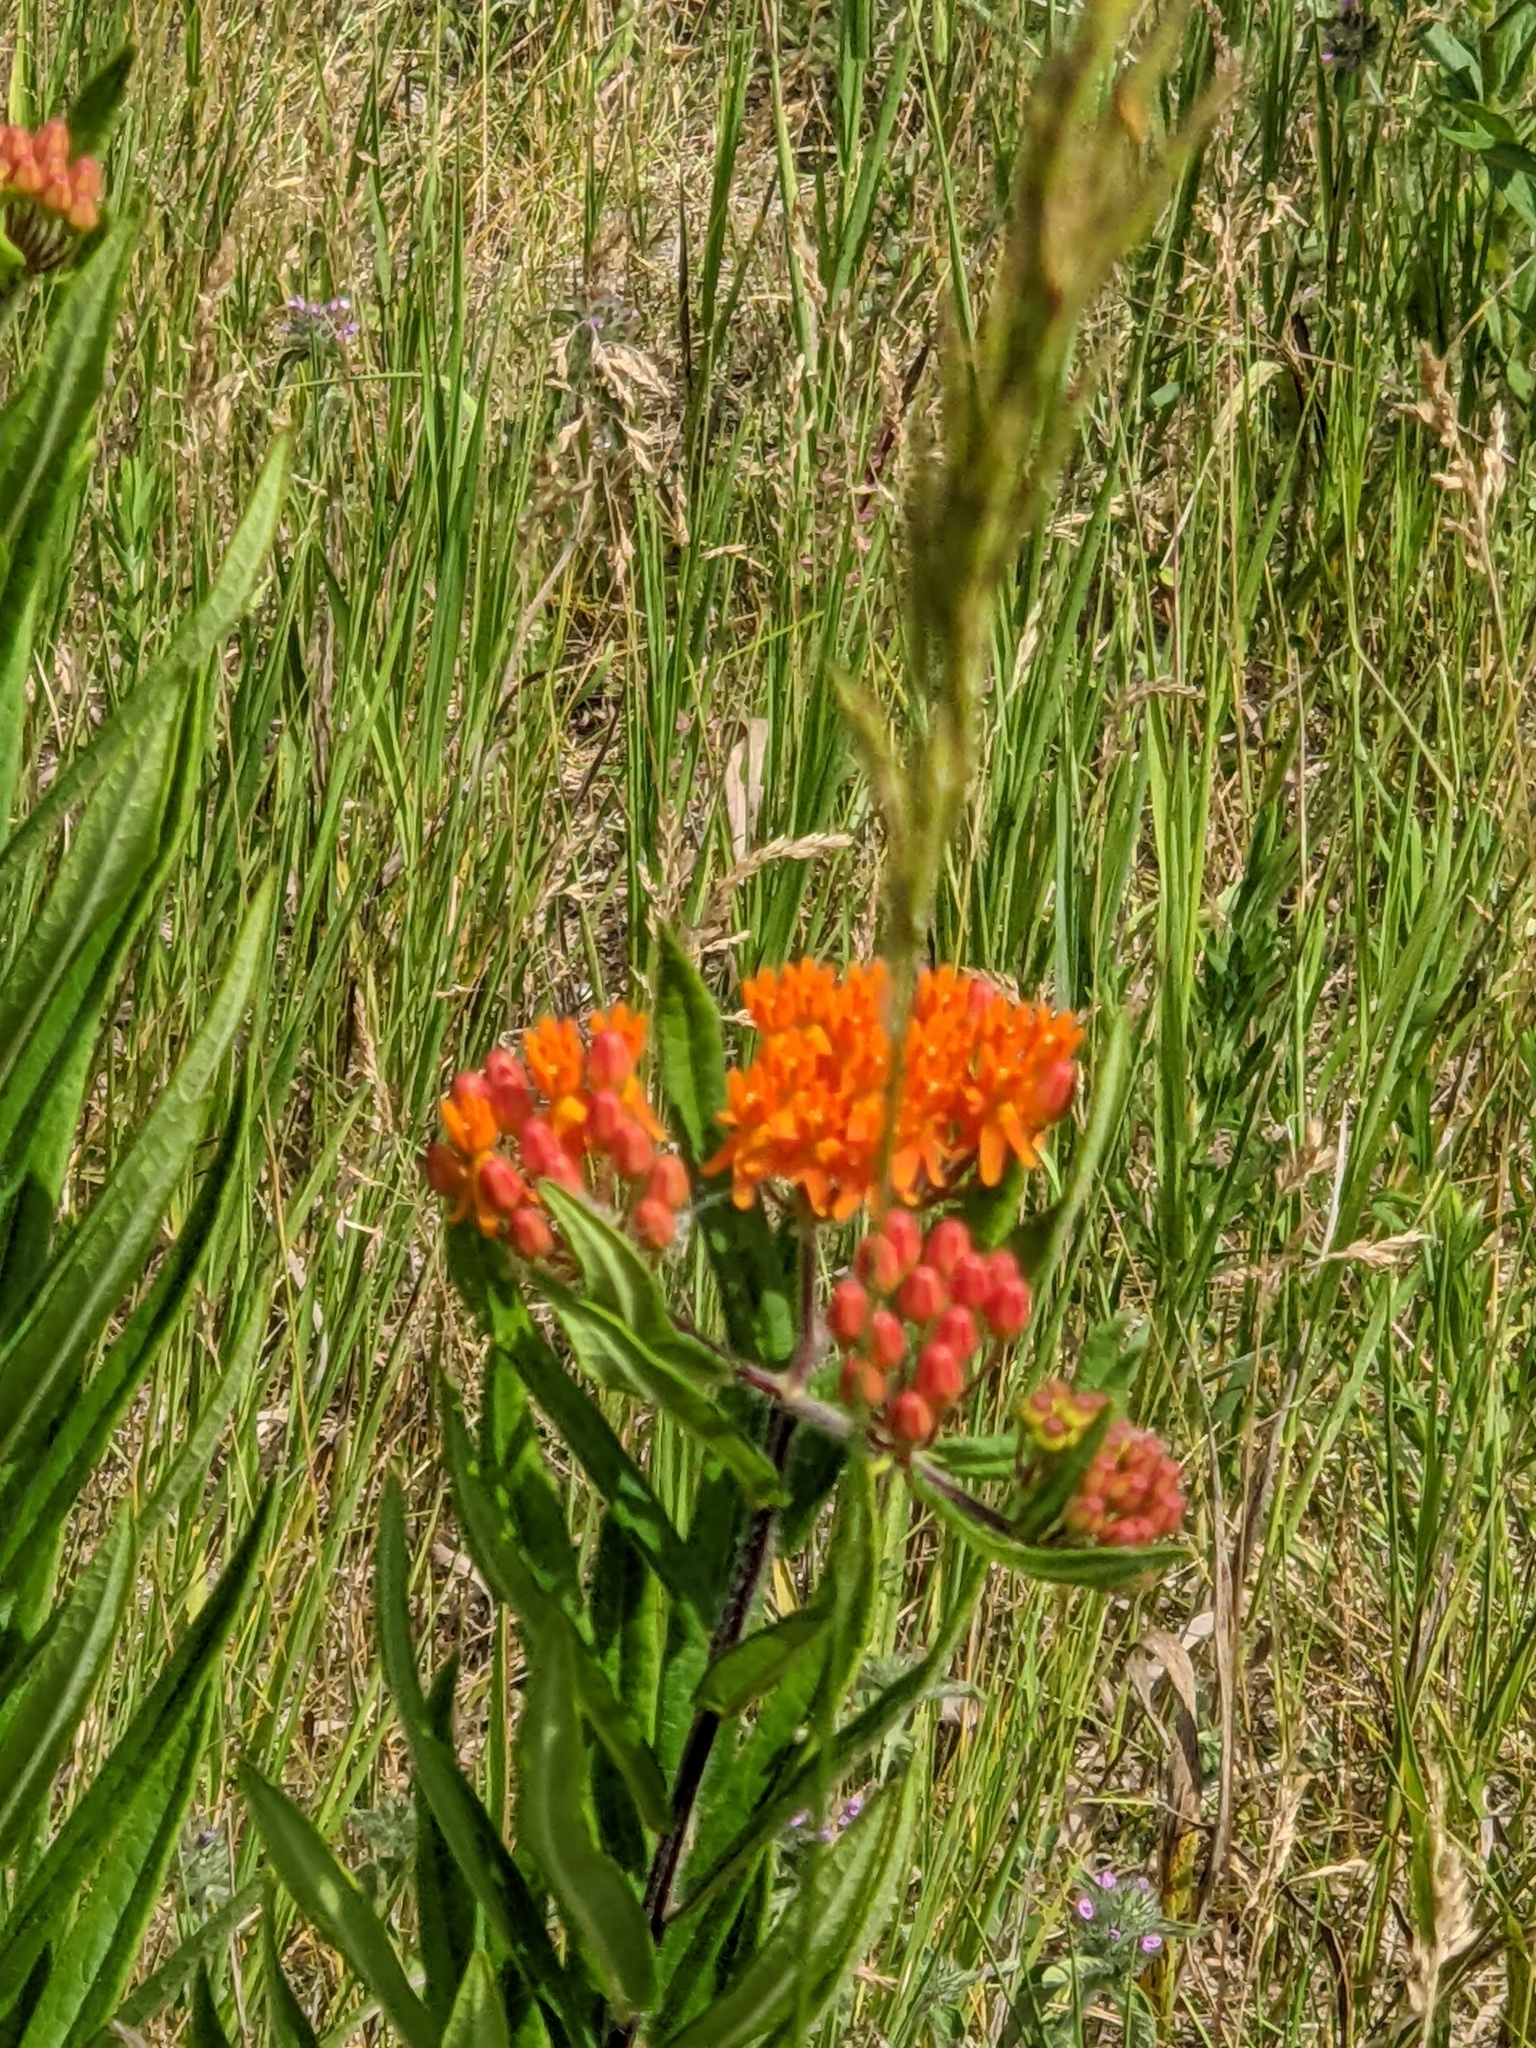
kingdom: Plantae
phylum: Tracheophyta
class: Magnoliopsida
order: Gentianales
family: Apocynaceae
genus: Asclepias
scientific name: Asclepias tuberosa
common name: Butterfly milkweed
